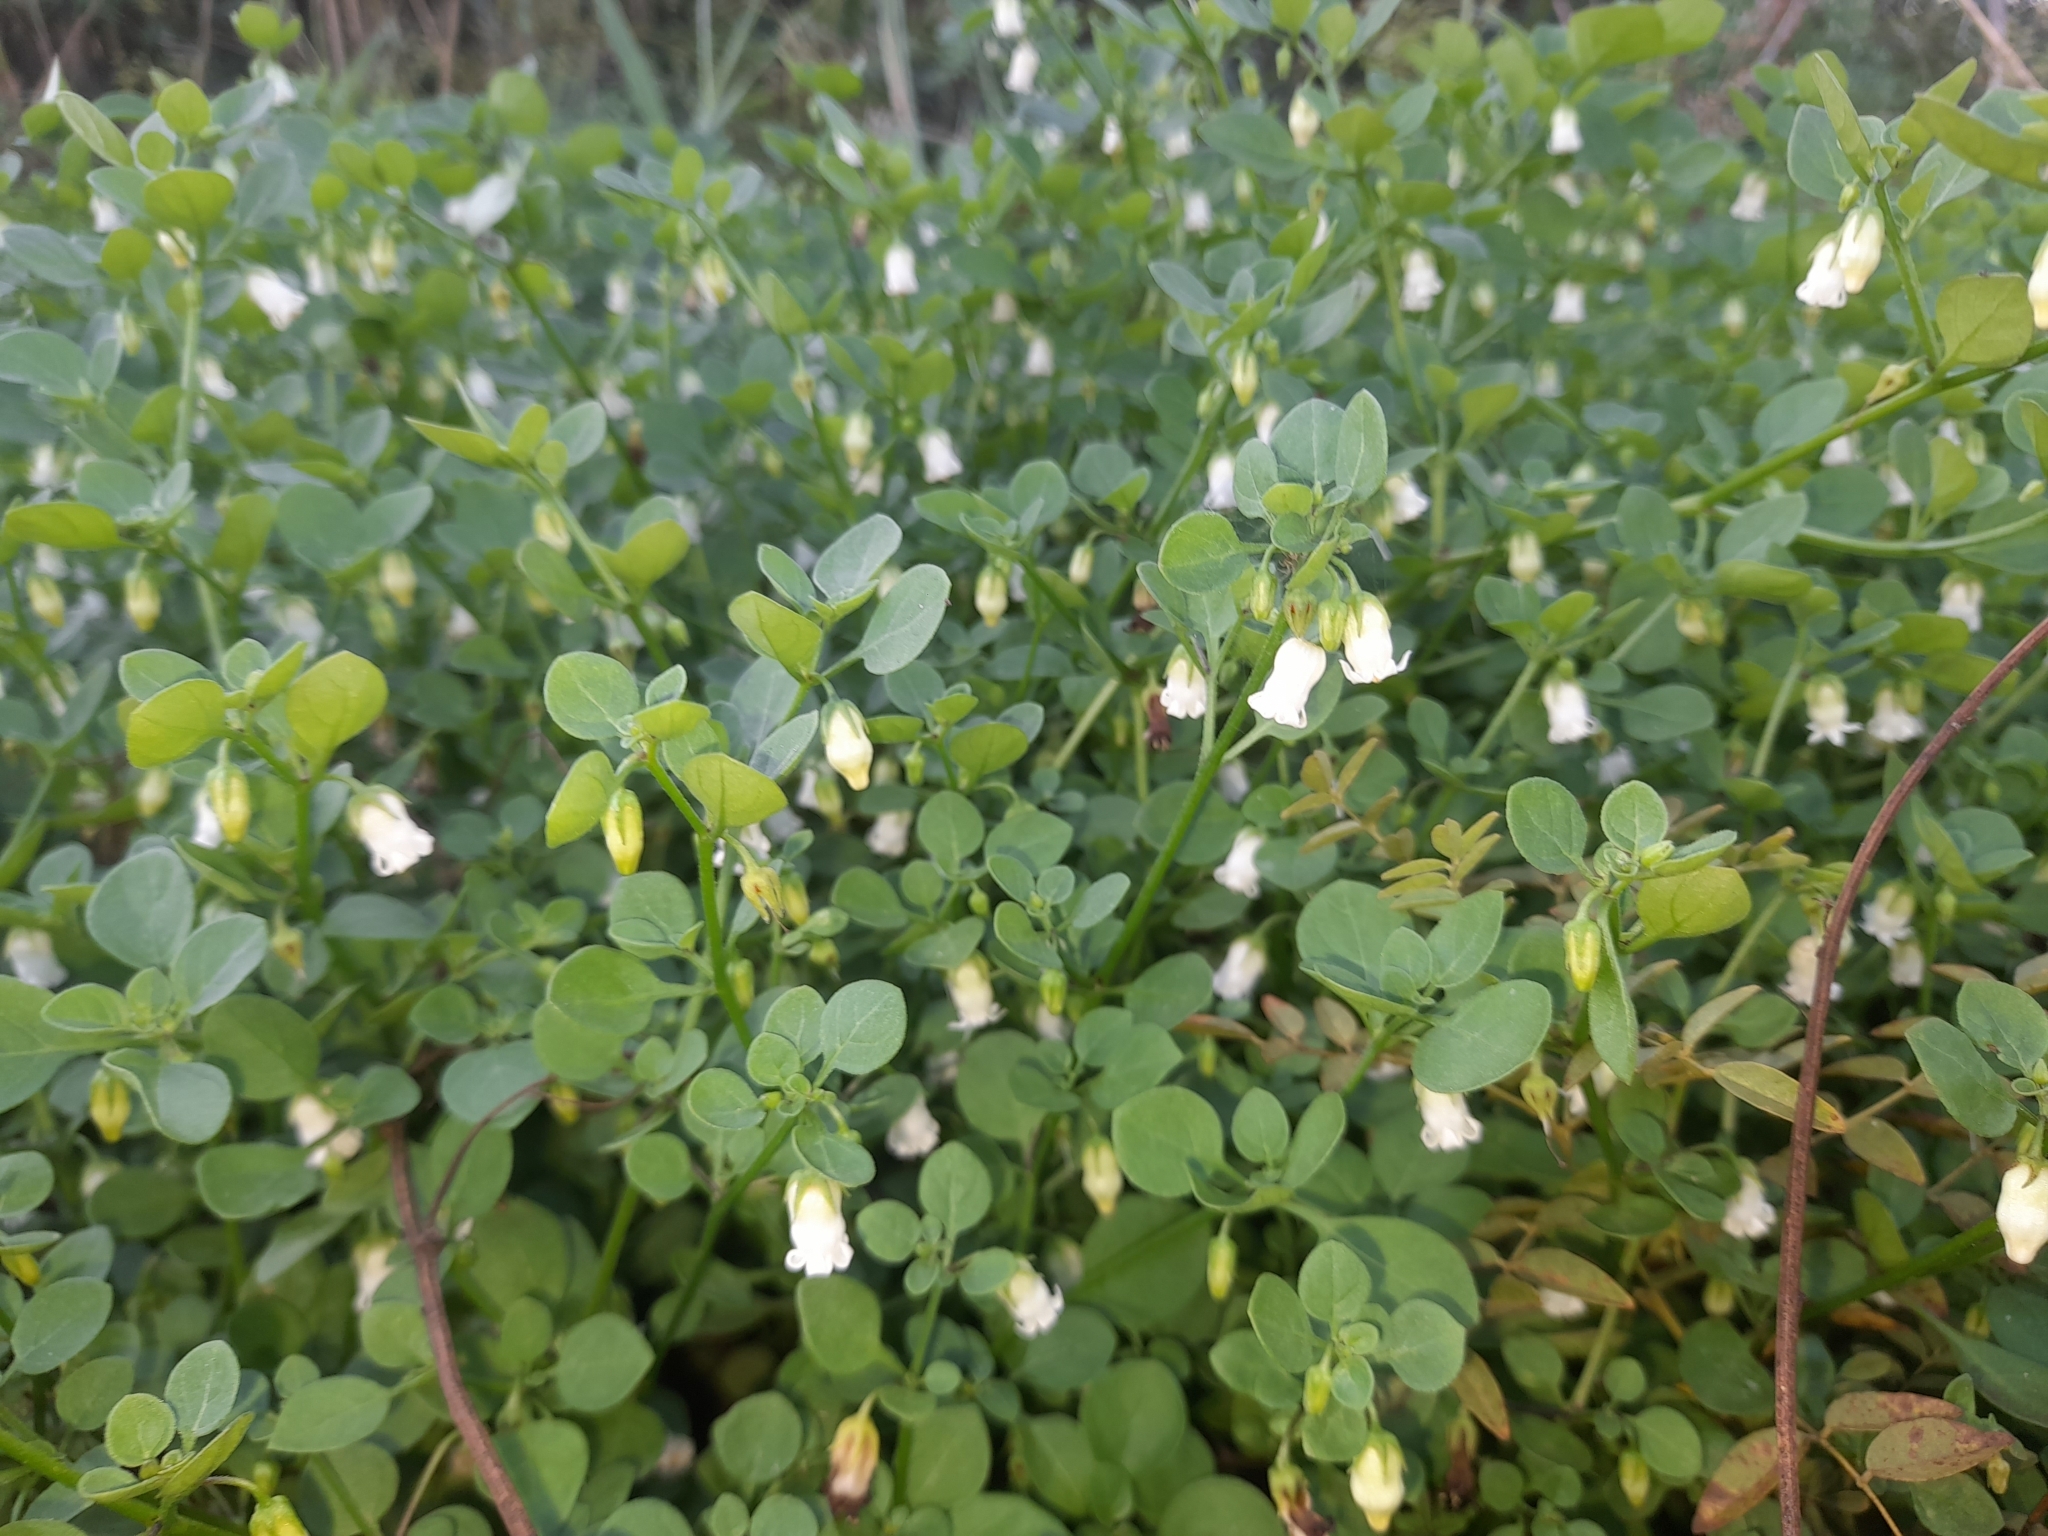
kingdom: Plantae
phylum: Tracheophyta
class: Magnoliopsida
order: Solanales
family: Solanaceae
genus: Salpichroa
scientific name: Salpichroa origanifolia
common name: Lily-of-the-valley-vine
